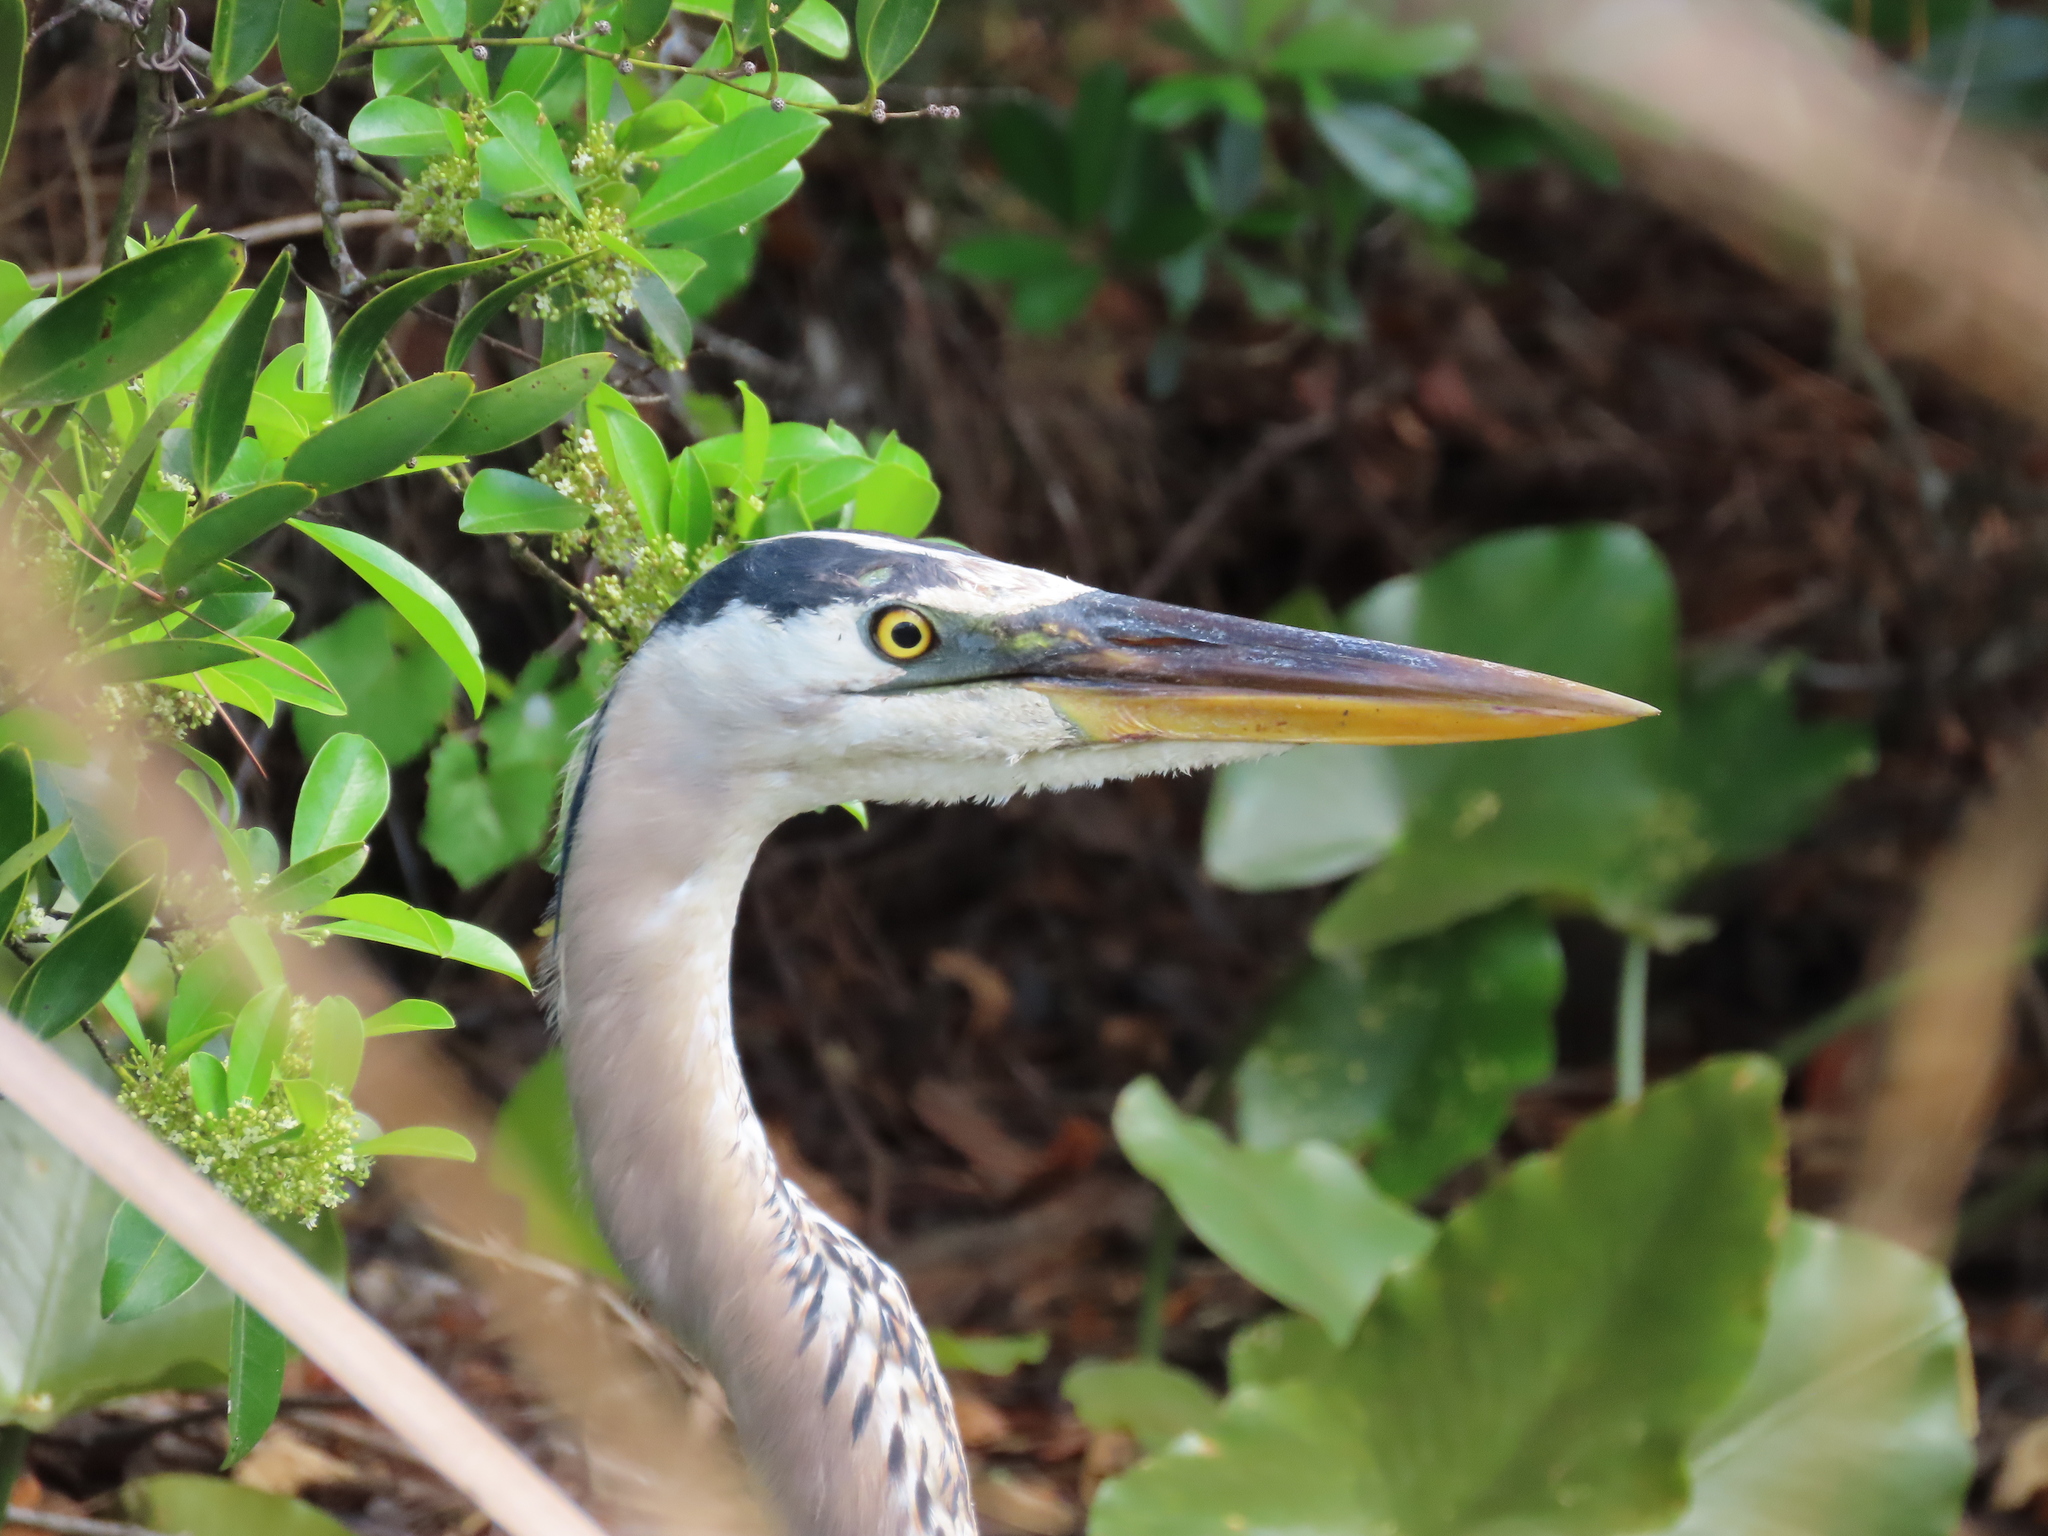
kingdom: Animalia
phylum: Chordata
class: Aves
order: Pelecaniformes
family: Ardeidae
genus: Ardea
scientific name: Ardea herodias
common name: Great blue heron
